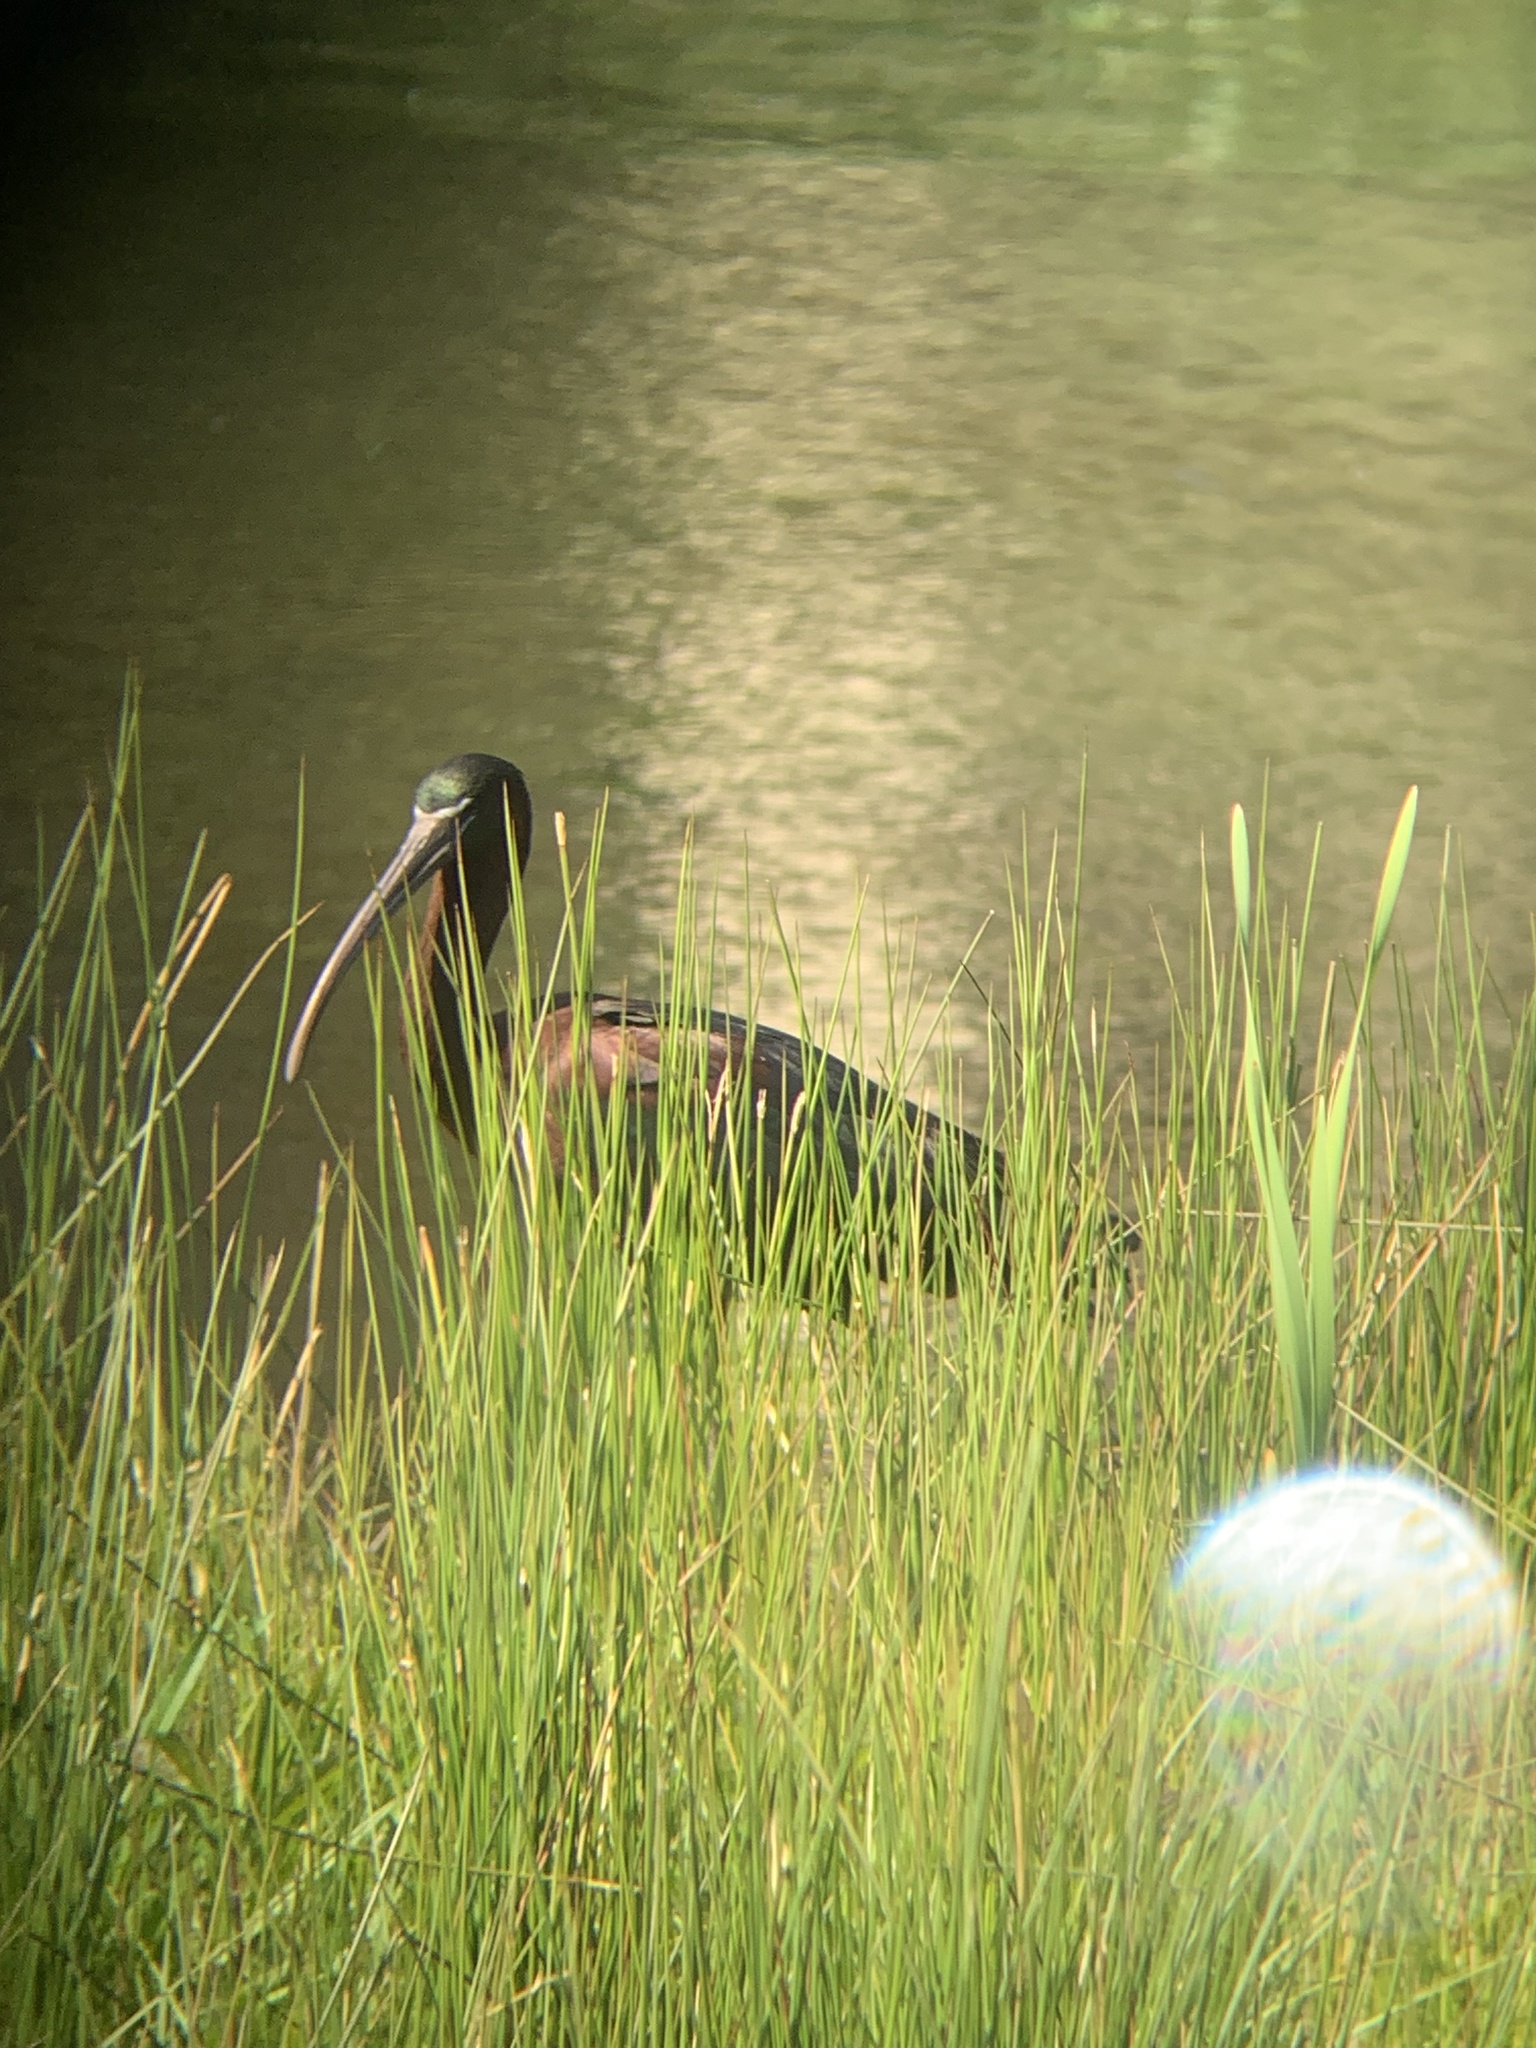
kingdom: Animalia
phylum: Chordata
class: Aves
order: Pelecaniformes
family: Threskiornithidae
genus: Plegadis
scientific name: Plegadis falcinellus
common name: Glossy ibis
